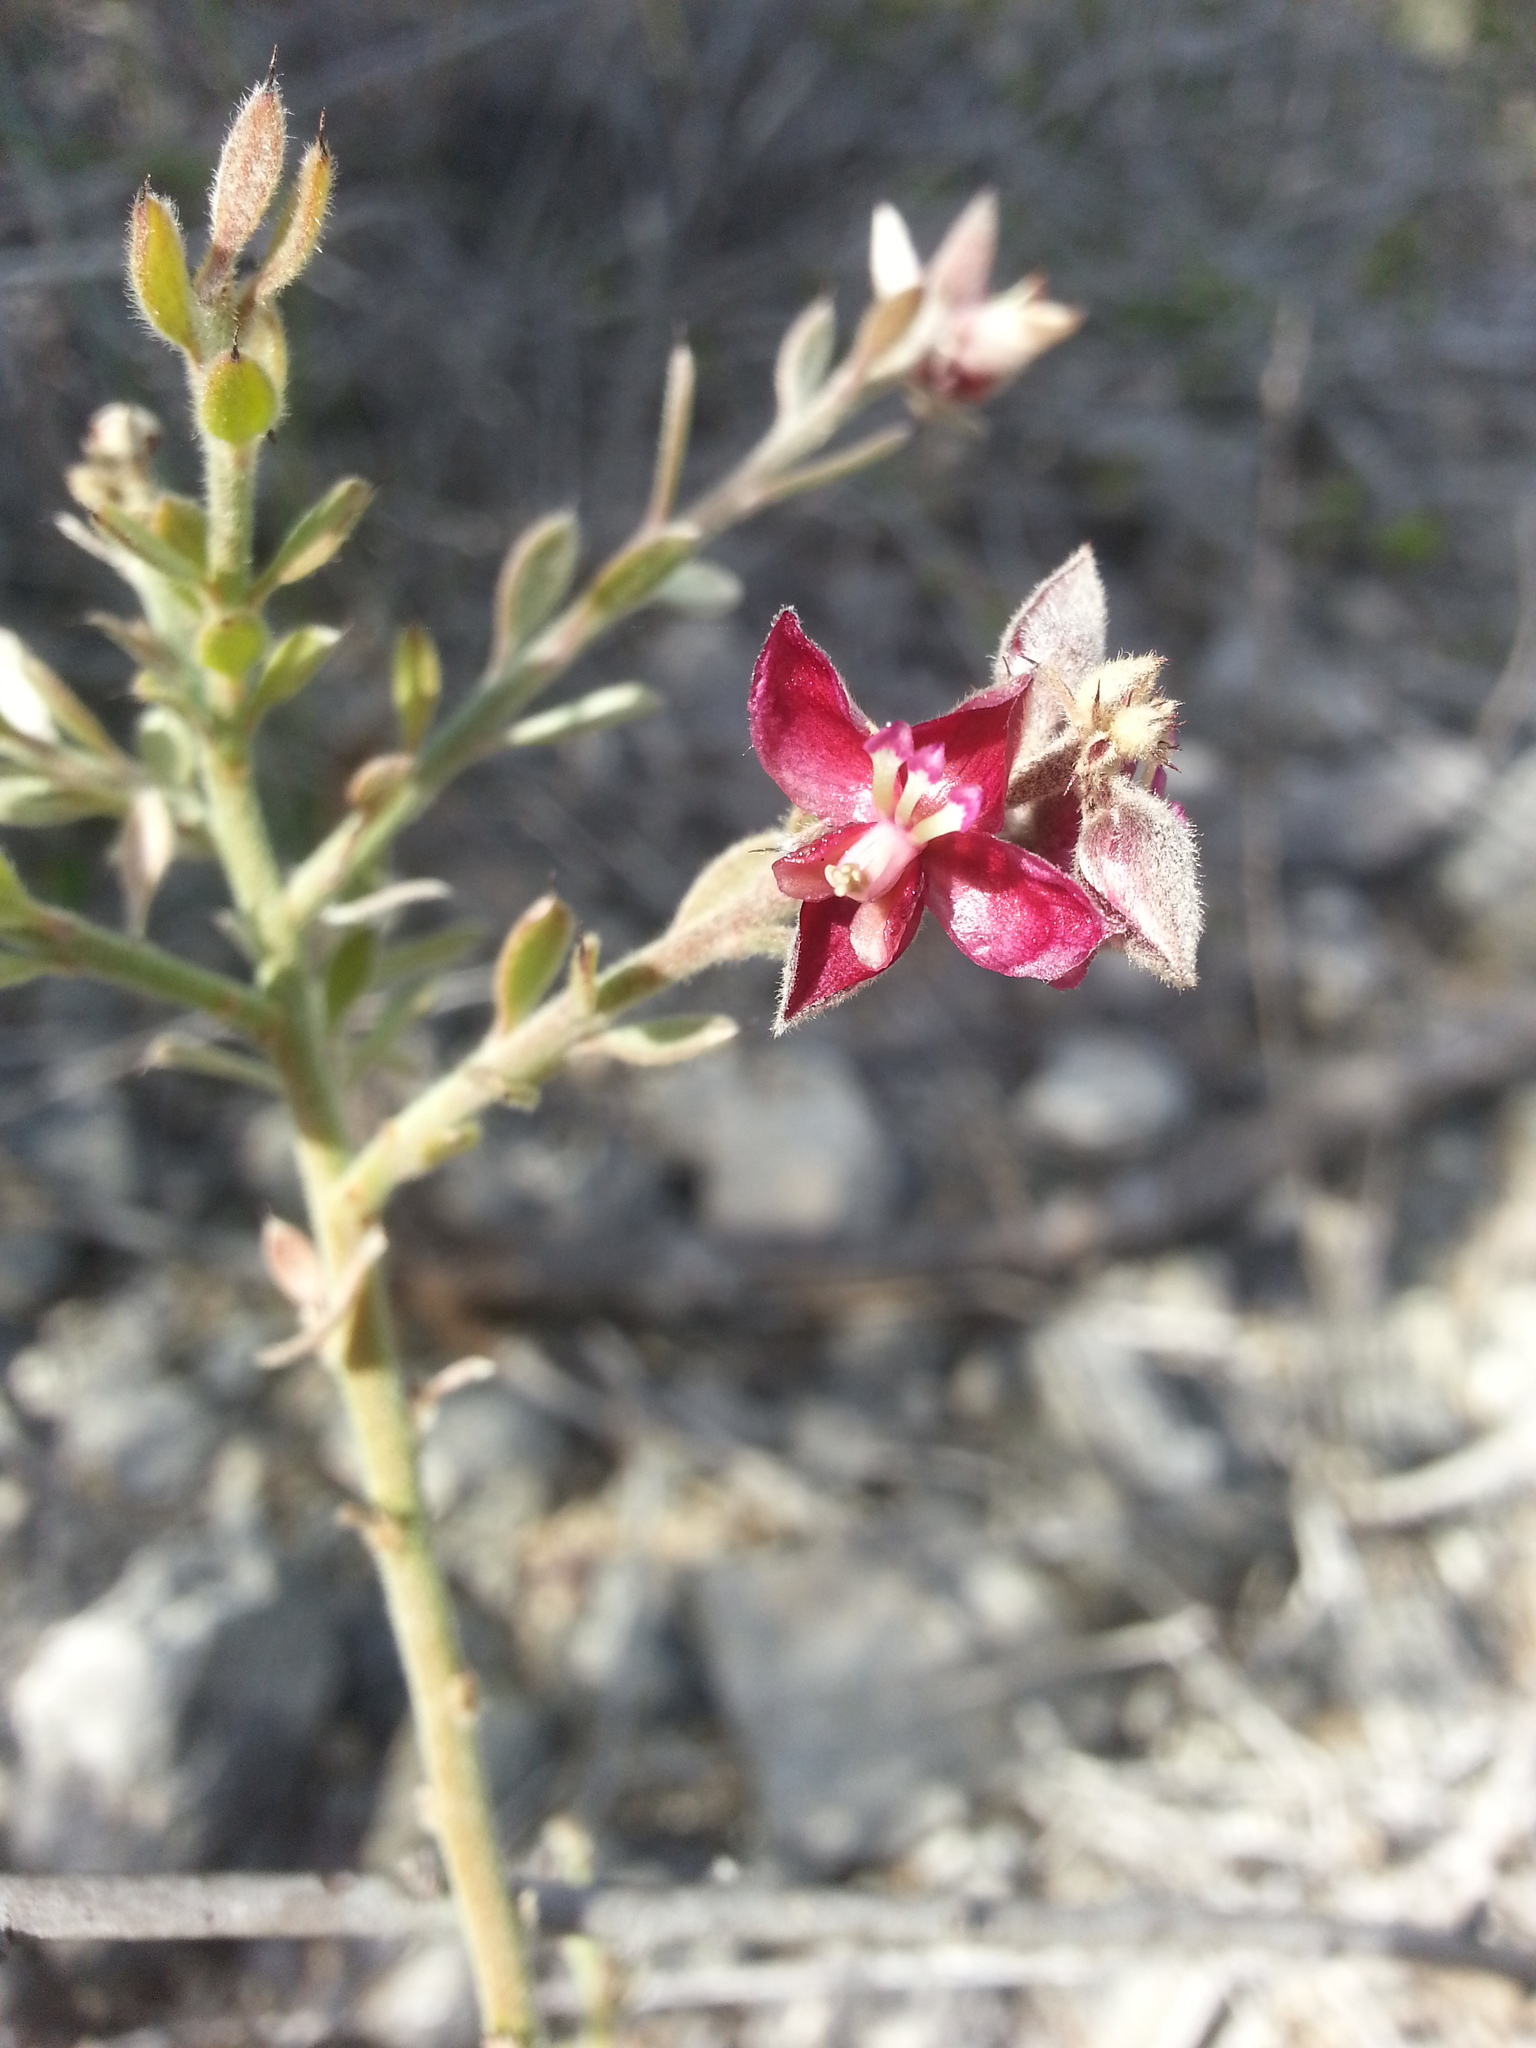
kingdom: Plantae
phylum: Tracheophyta
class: Magnoliopsida
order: Zygophyllales
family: Krameriaceae
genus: Krameria
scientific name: Krameria ixine
